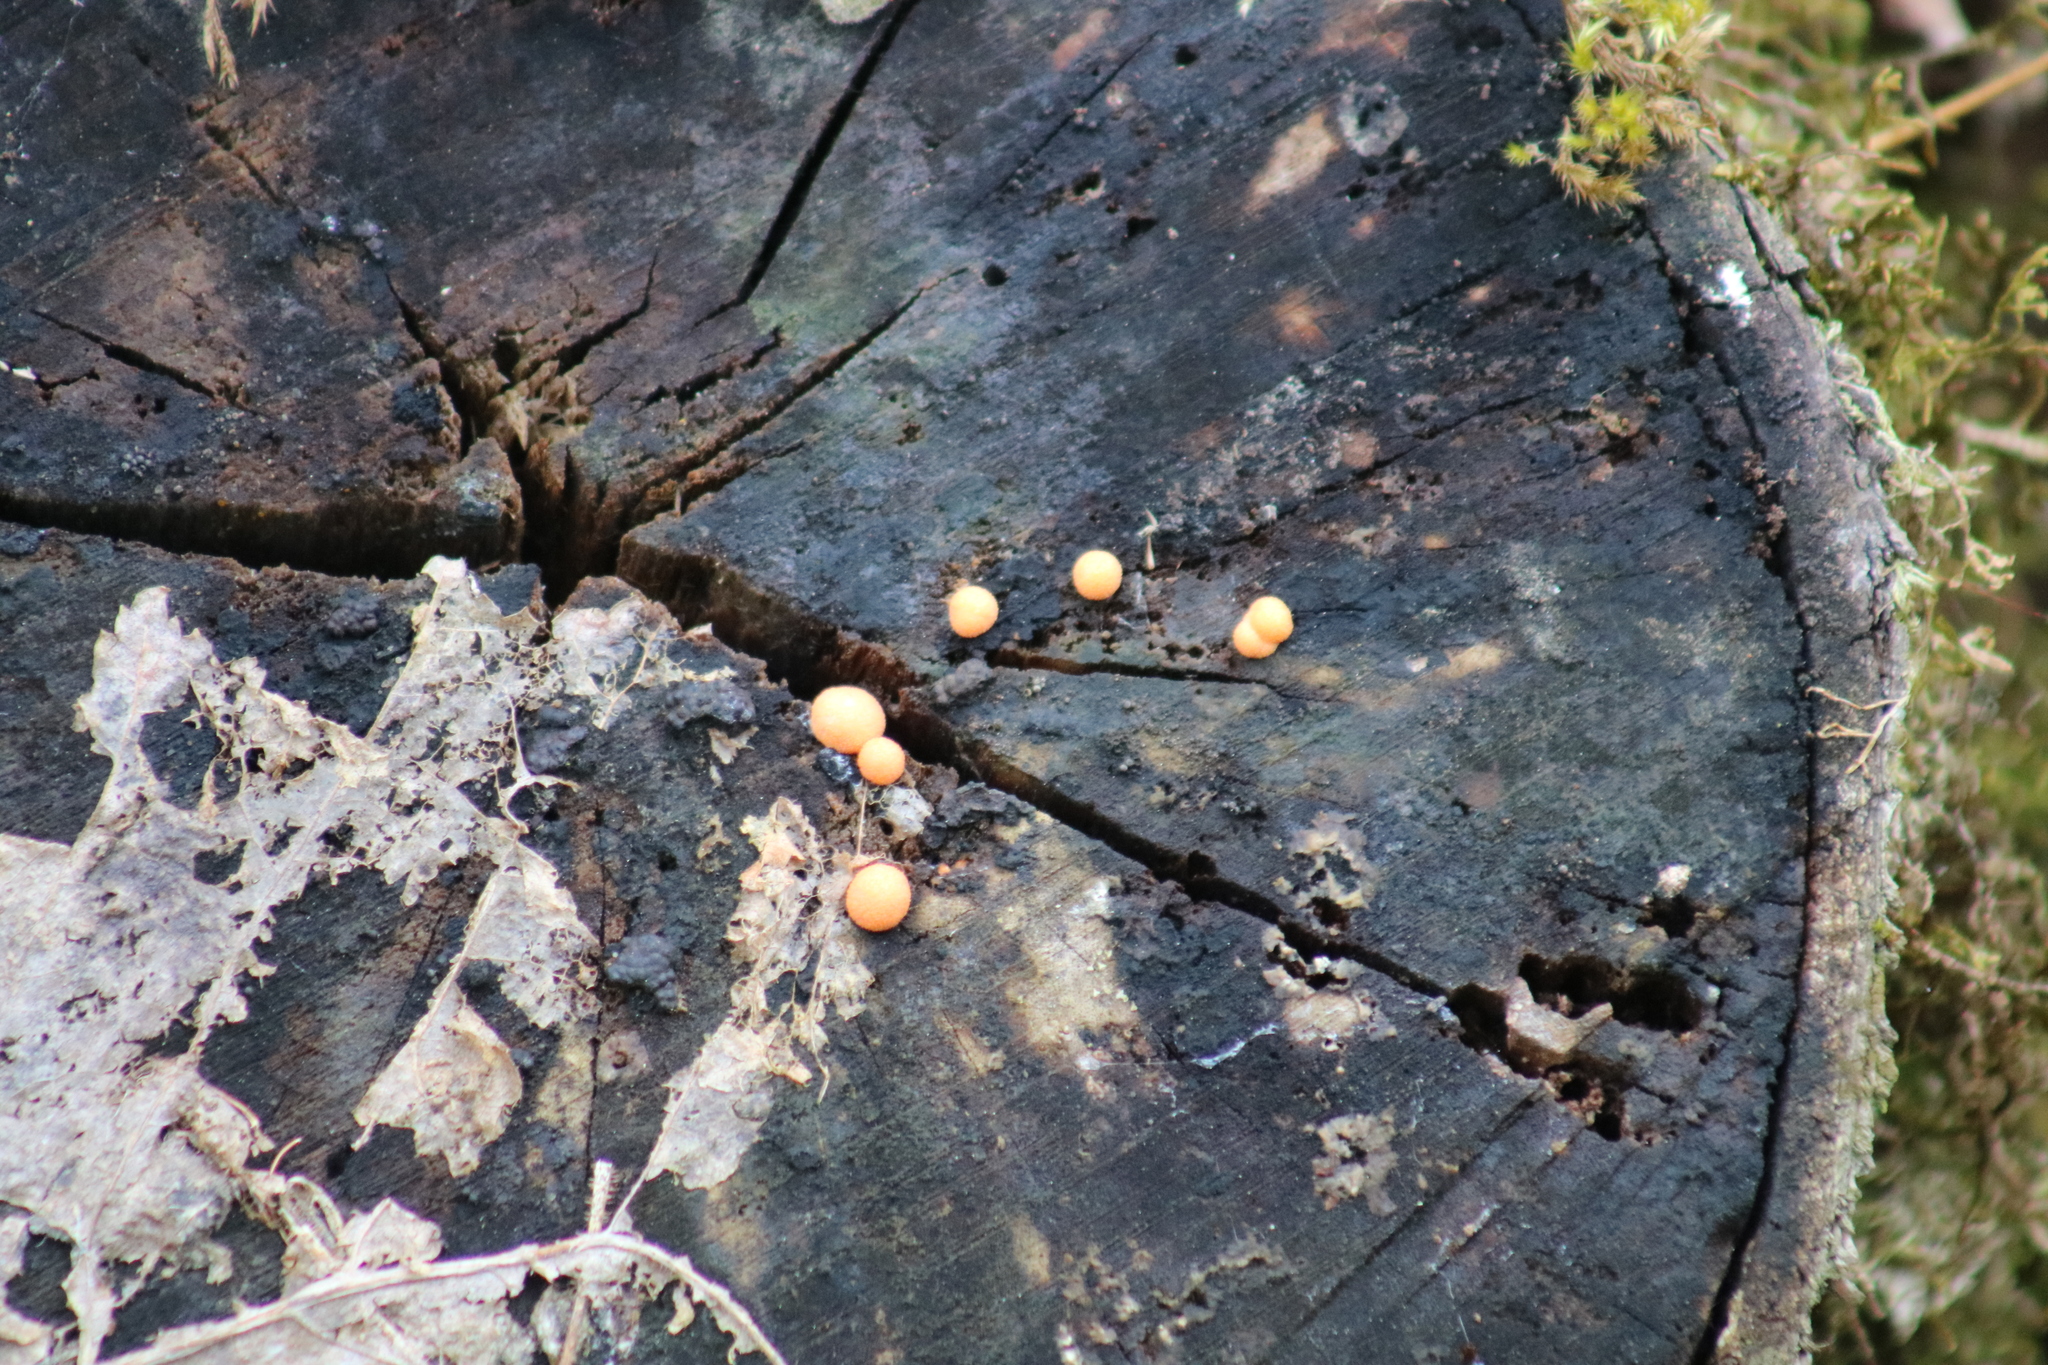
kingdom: Protozoa
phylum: Mycetozoa
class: Myxomycetes
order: Cribrariales
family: Tubiferaceae
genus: Lycogala
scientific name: Lycogala epidendrum
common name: Wolf's milk
